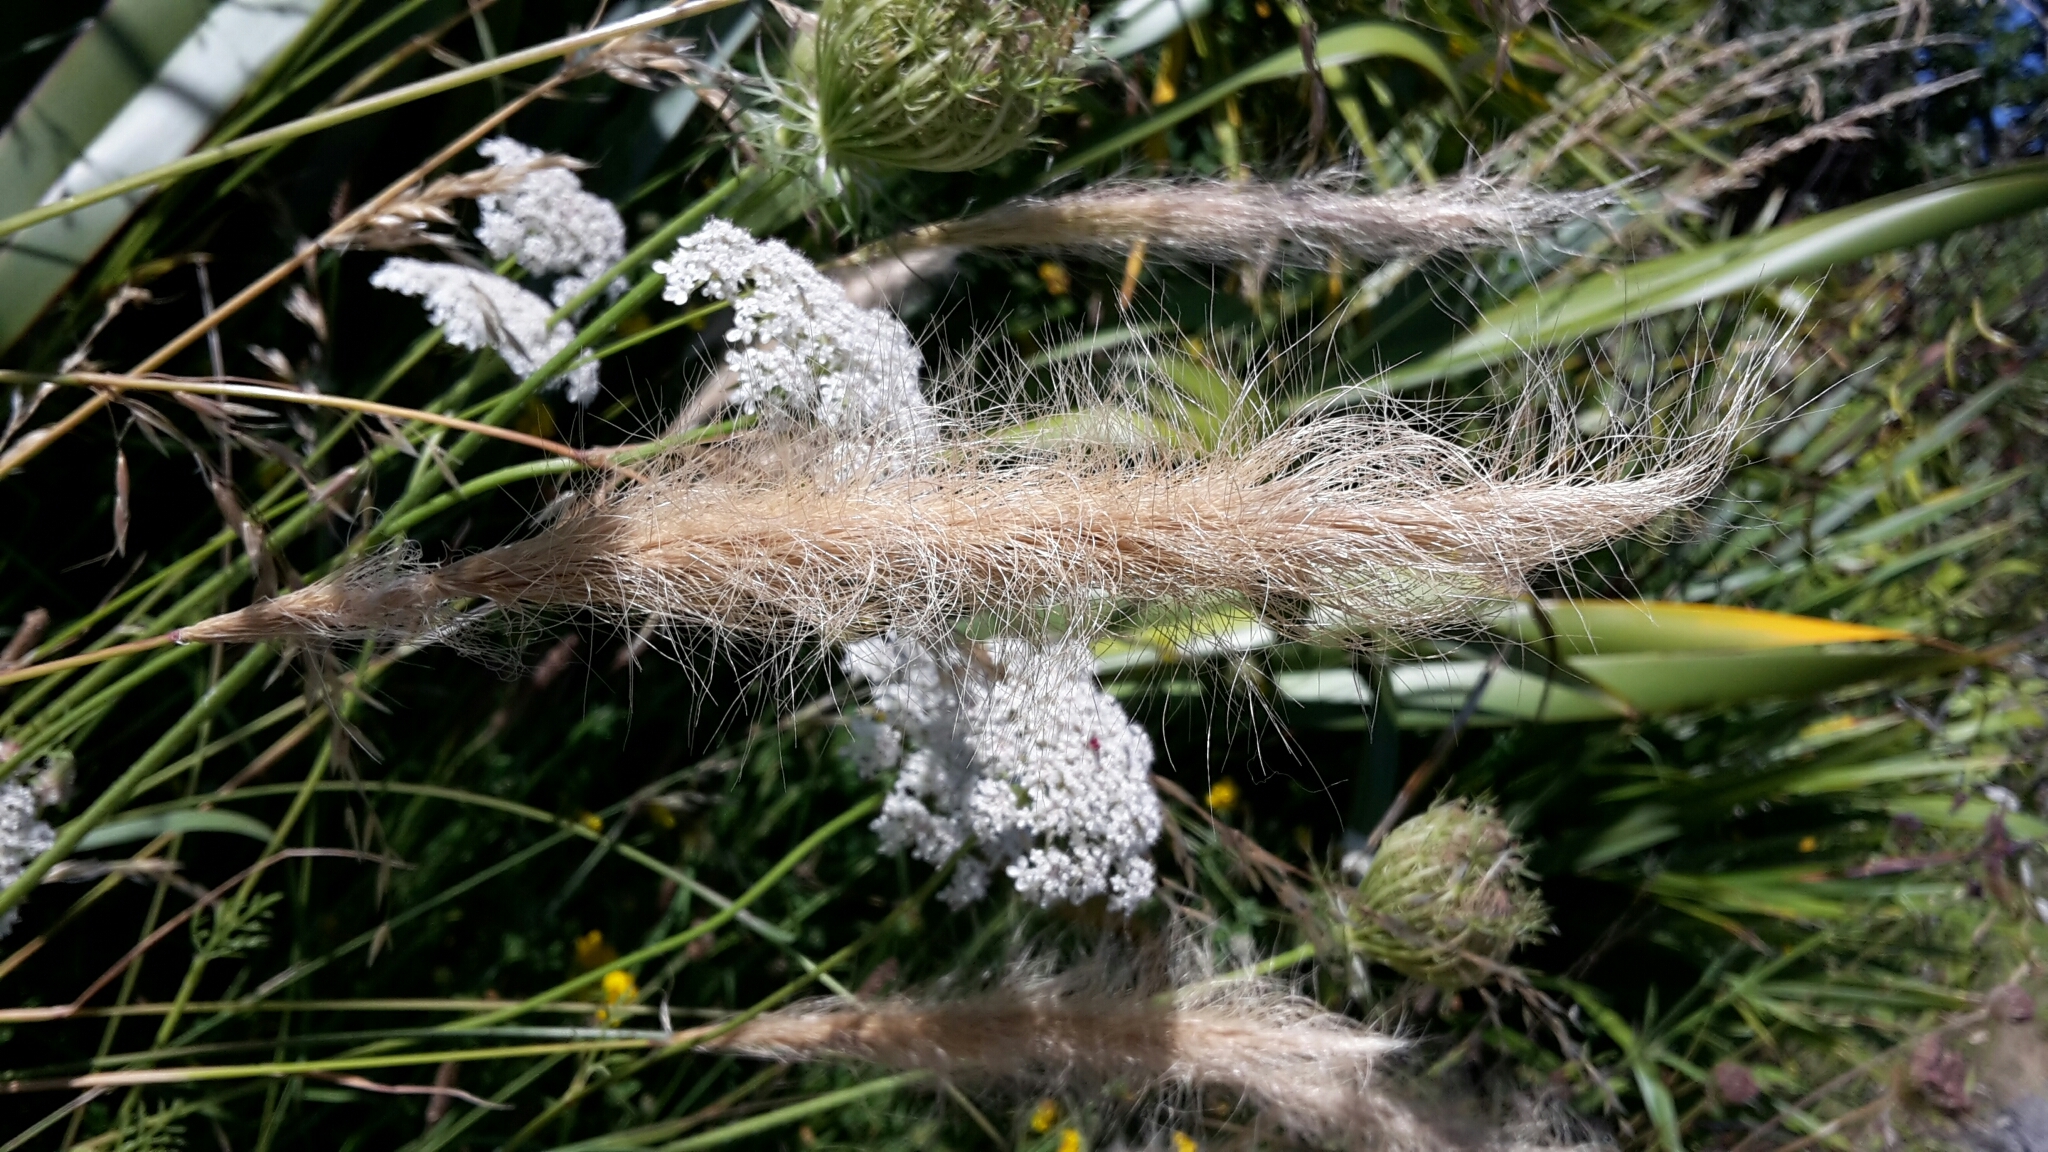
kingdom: Plantae
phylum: Tracheophyta
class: Liliopsida
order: Poales
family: Poaceae
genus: Dichelachne
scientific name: Dichelachne crinita
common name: Clovenfoot plumegrass
